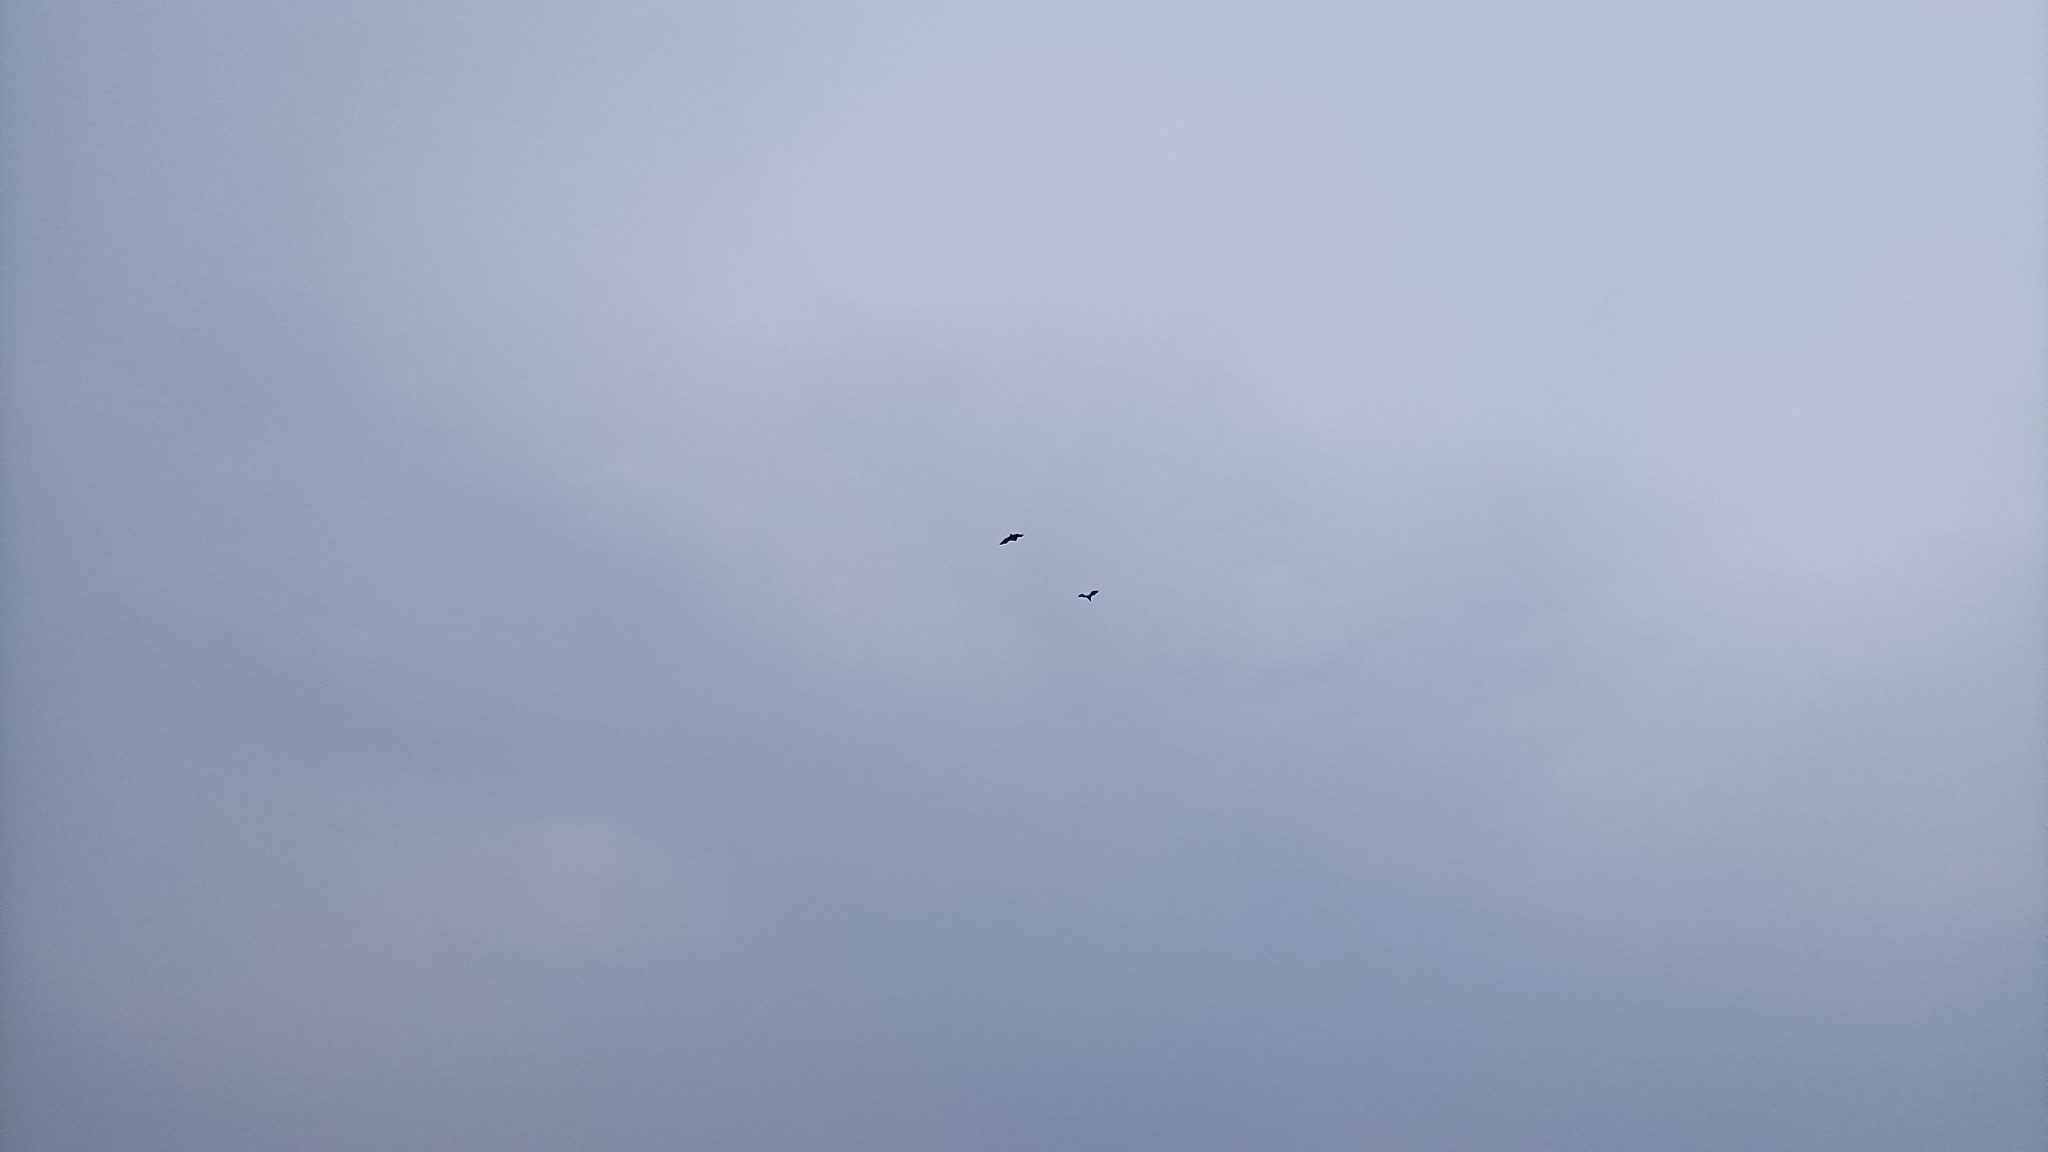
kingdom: Animalia
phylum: Chordata
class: Mammalia
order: Chiroptera
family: Pteropodidae
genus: Pteropus
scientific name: Pteropus vampyrus
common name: Large flying fox
